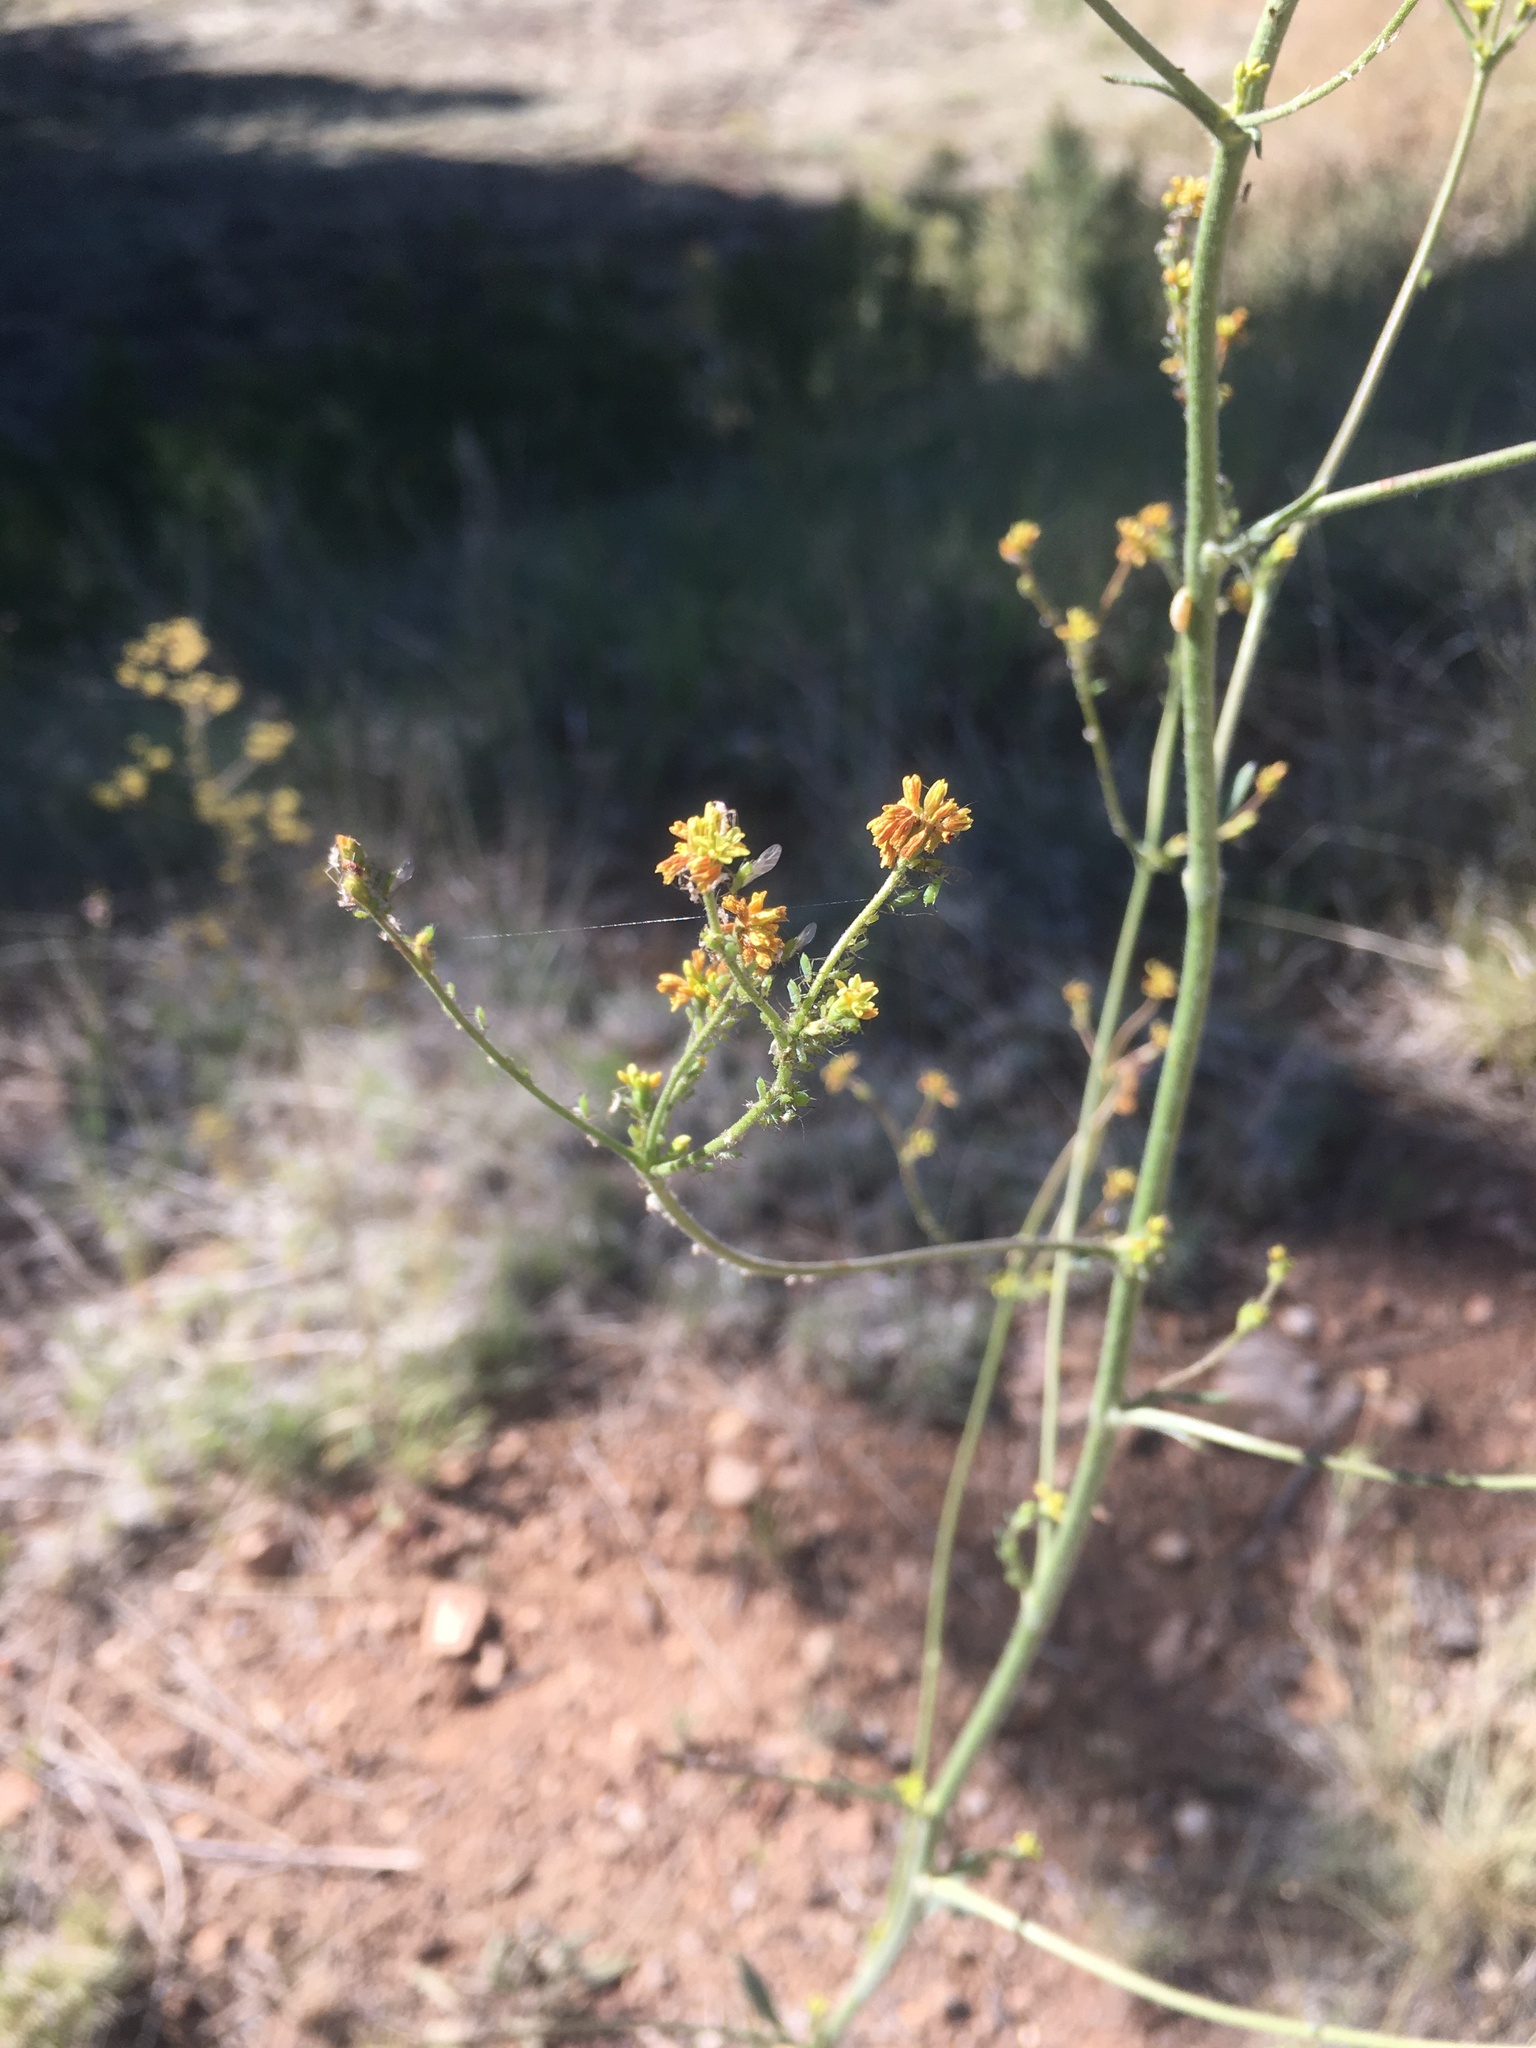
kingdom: Plantae
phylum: Tracheophyta
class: Magnoliopsida
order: Caryophyllales
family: Polygonaceae
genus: Eriogonum
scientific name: Eriogonum alatum
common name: Winged eriogonum
